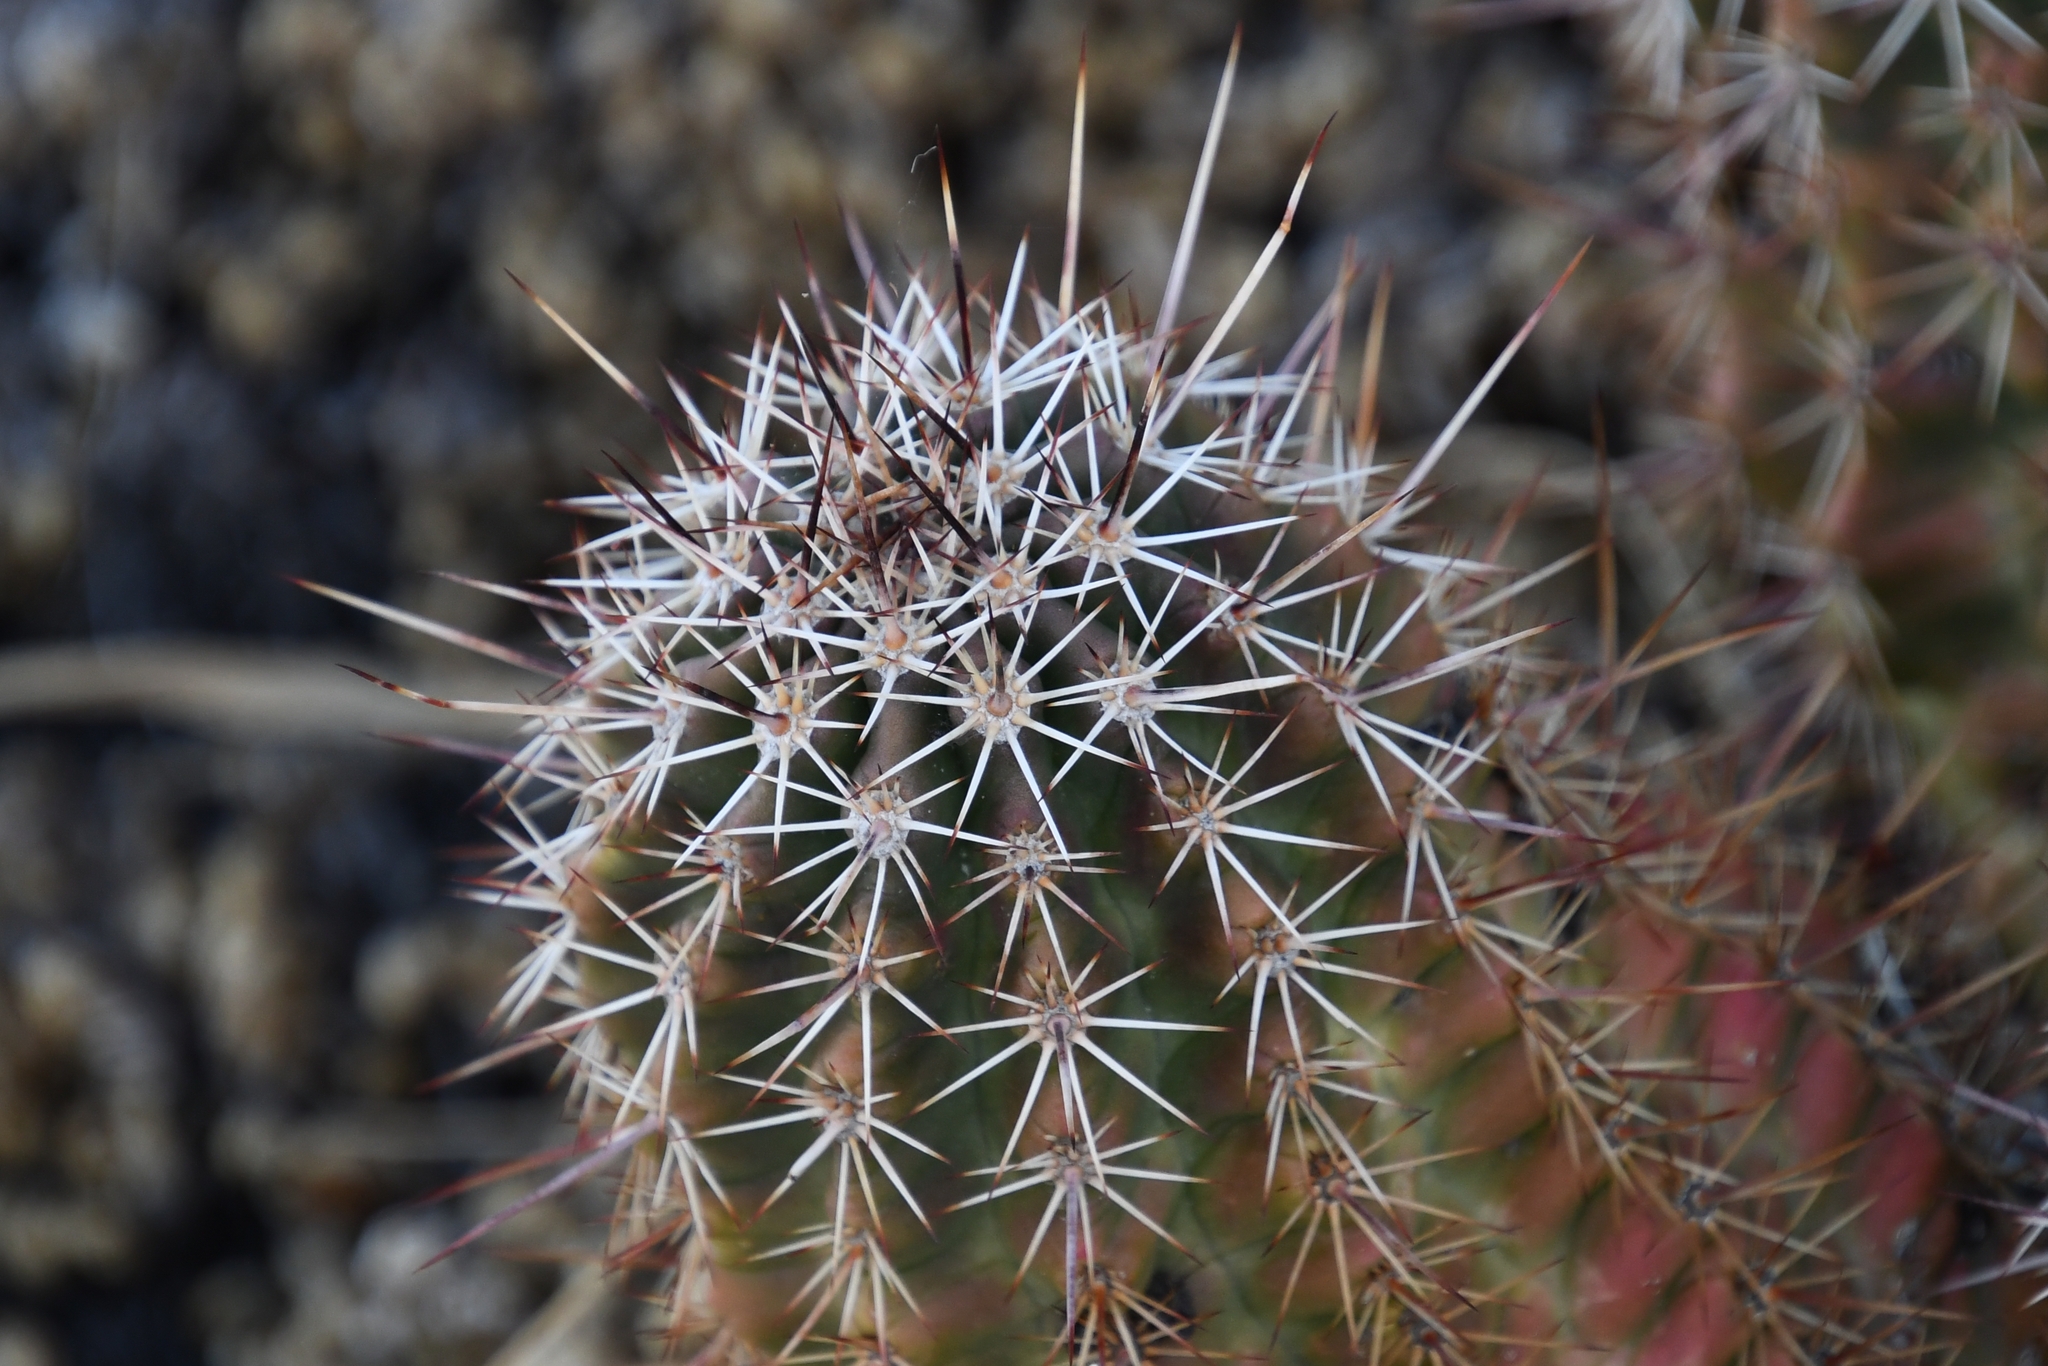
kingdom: Plantae
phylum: Tracheophyta
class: Magnoliopsida
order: Caryophyllales
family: Cactaceae
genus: Echinocereus
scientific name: Echinocereus fasciculatus
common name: Bundle hedgehog
